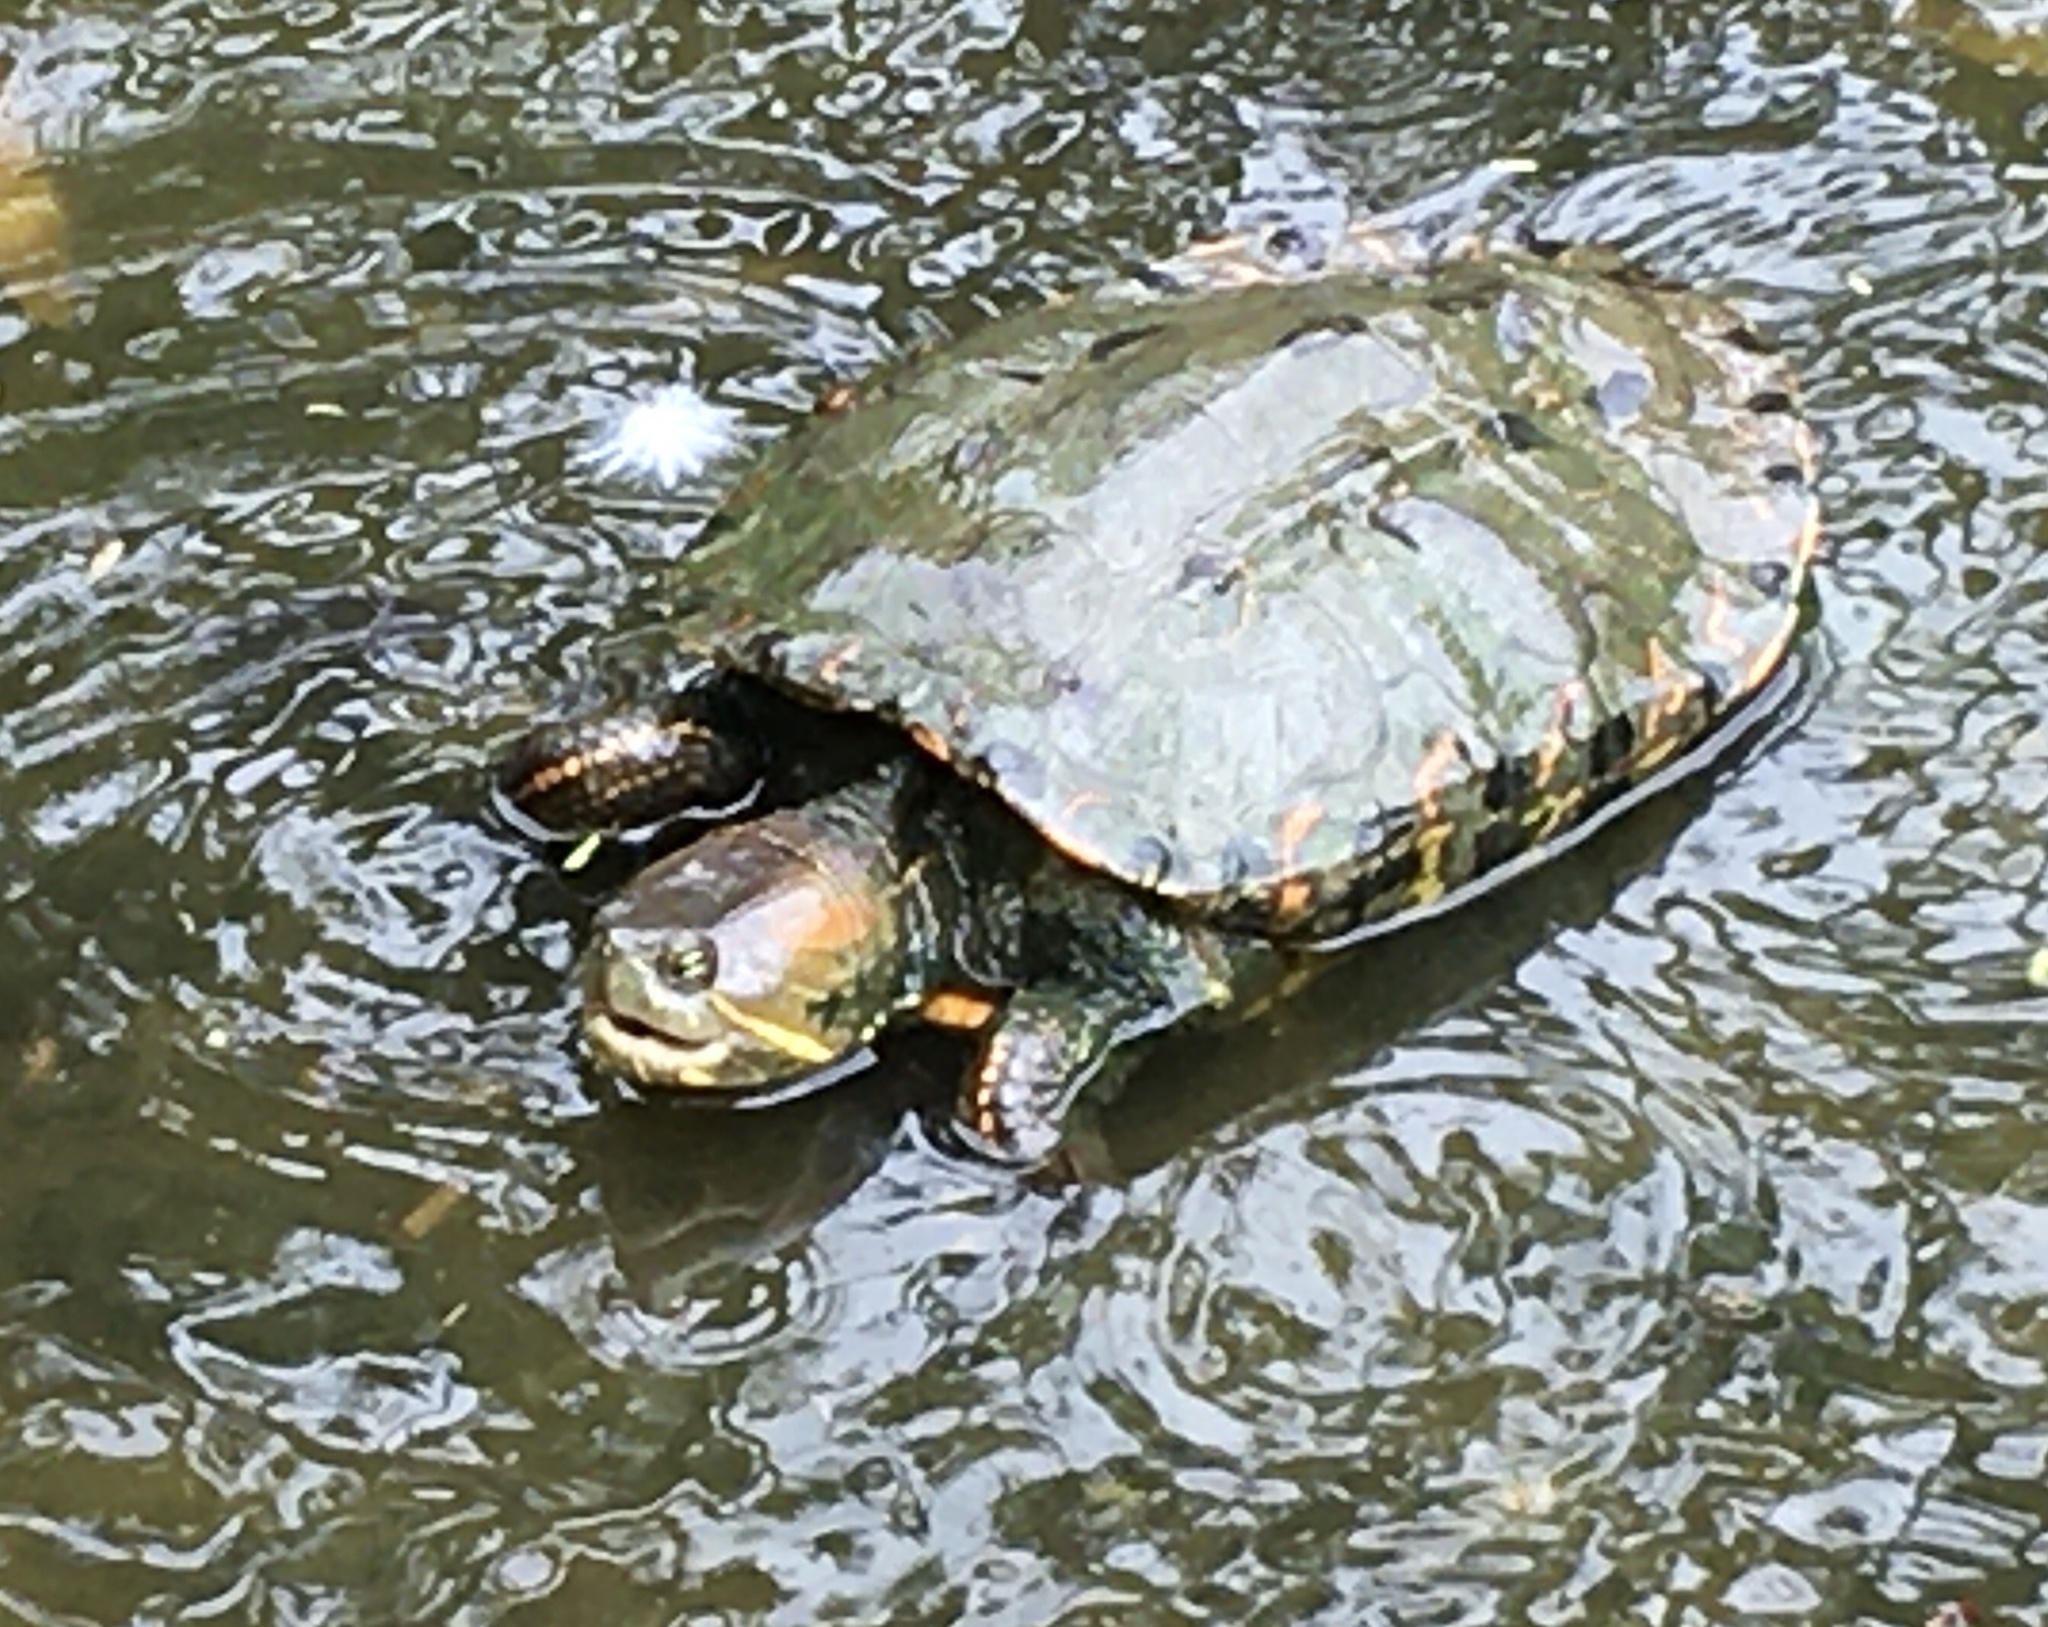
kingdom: Animalia
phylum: Chordata
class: Testudines
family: Emydidae
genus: Trachemys
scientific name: Trachemys callirostris
